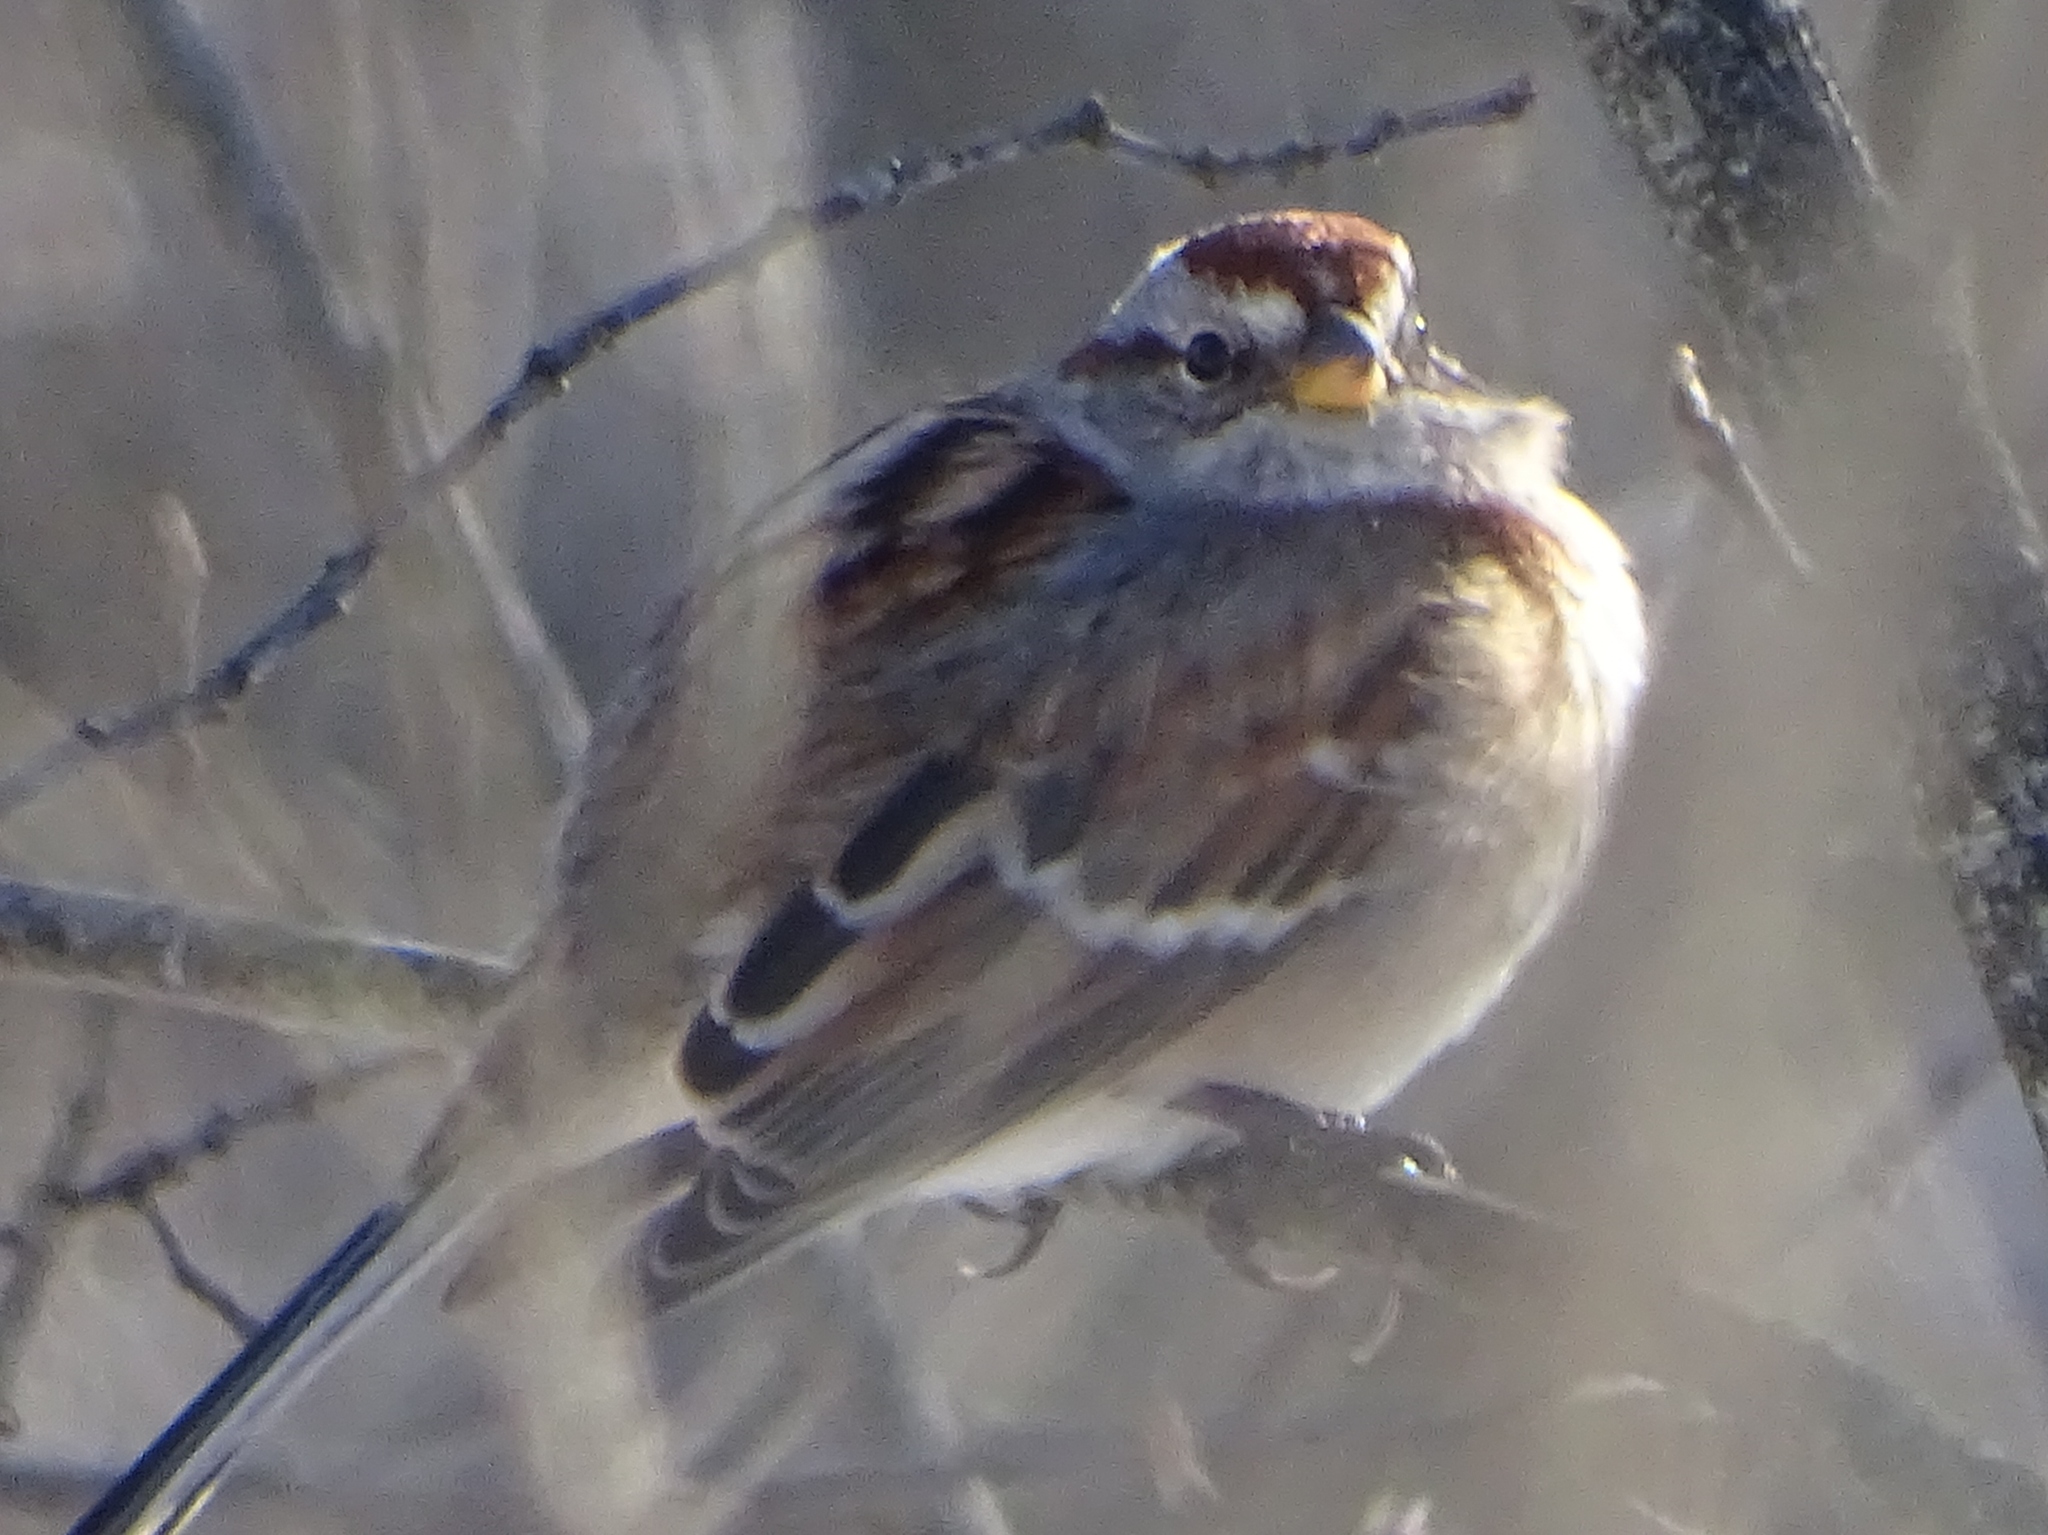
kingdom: Animalia
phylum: Chordata
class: Aves
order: Passeriformes
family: Passerellidae
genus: Spizelloides
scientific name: Spizelloides arborea
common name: American tree sparrow
